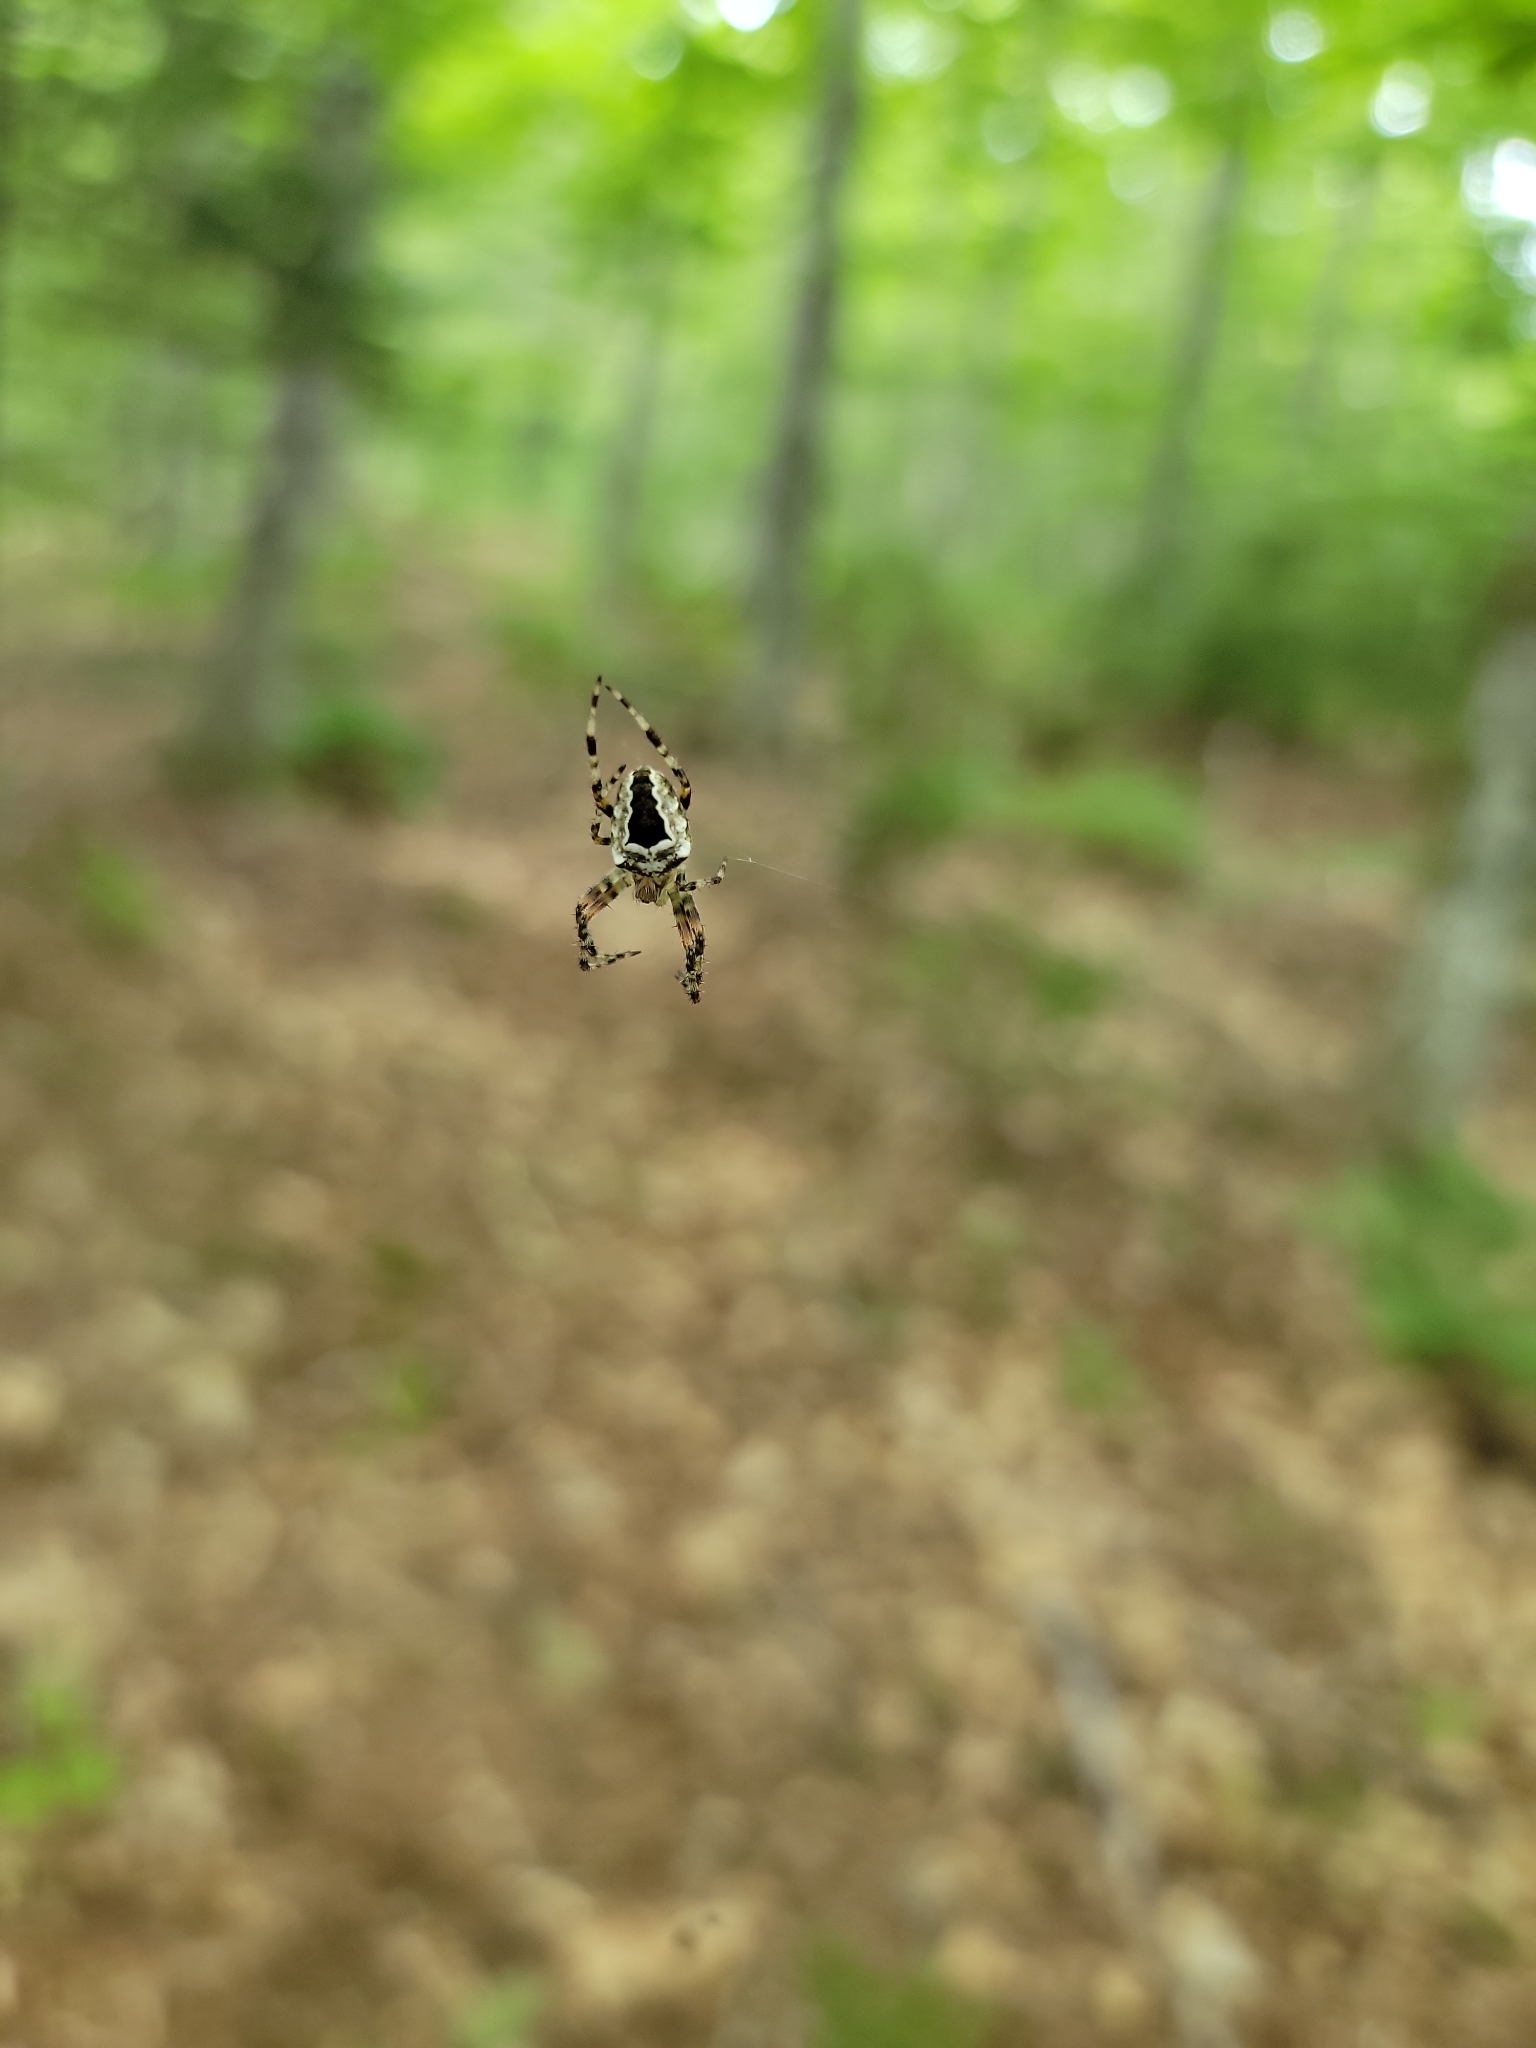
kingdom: Animalia
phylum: Arthropoda
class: Arachnida
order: Araneae
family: Araneidae
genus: Araneus
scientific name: Araneus nordmanni
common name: Nordmann's orbweaver
